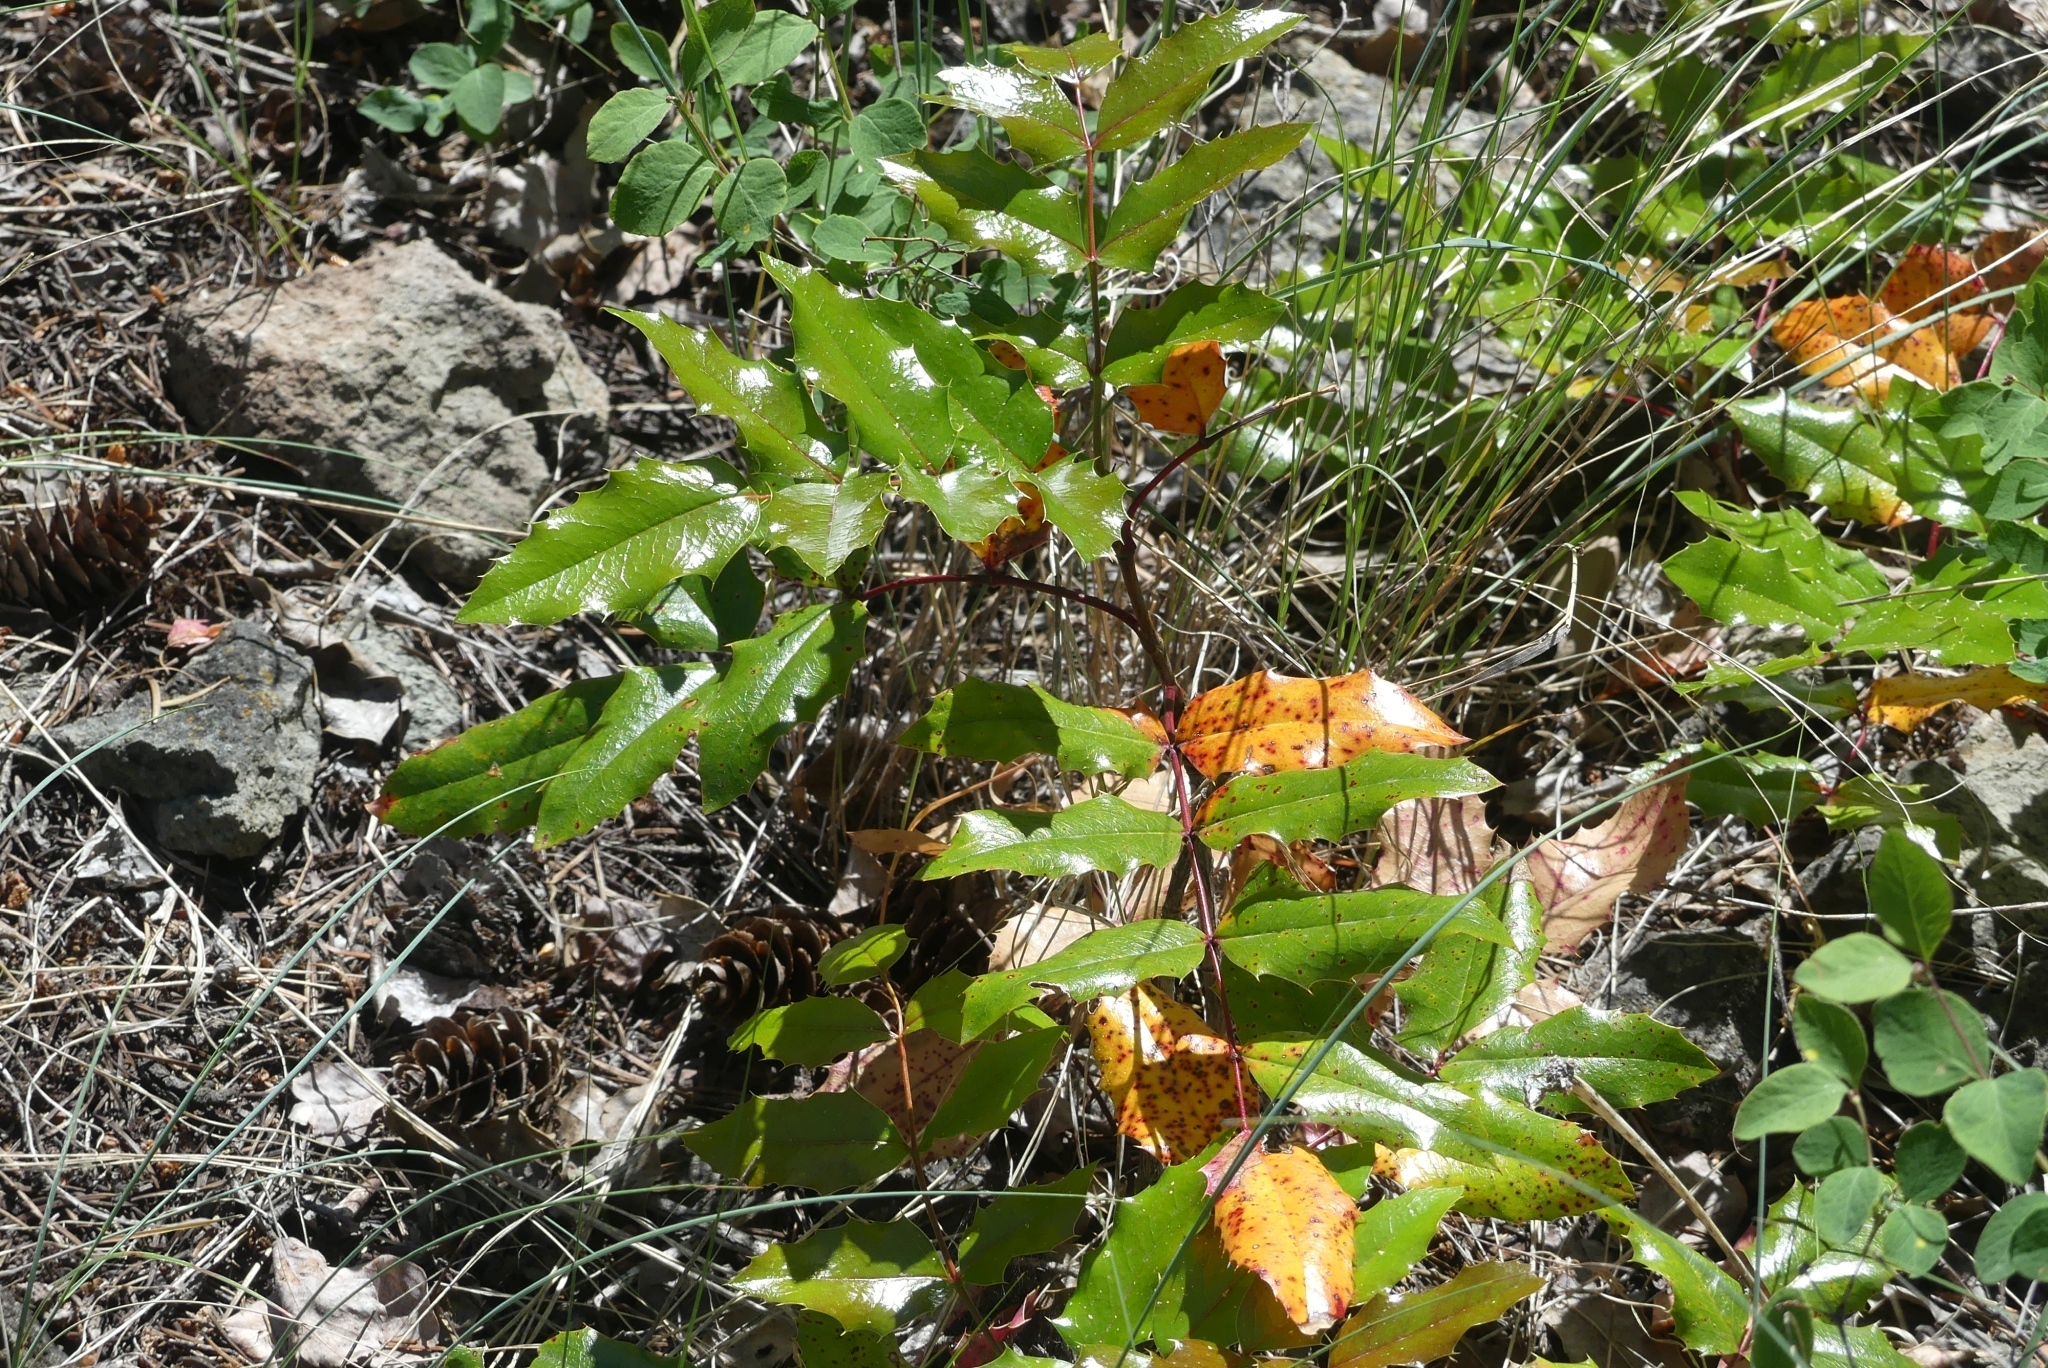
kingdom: Plantae
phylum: Tracheophyta
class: Magnoliopsida
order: Ranunculales
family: Berberidaceae
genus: Mahonia
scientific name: Mahonia aquifolium
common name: Oregon-grape
